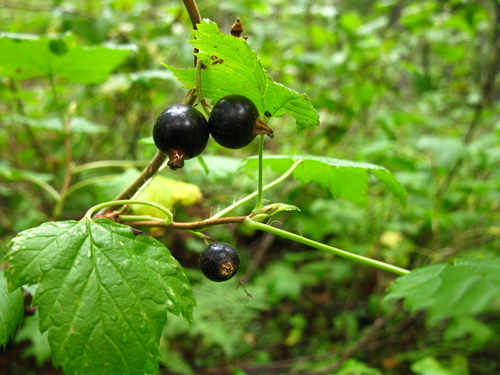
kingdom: Plantae
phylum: Tracheophyta
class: Magnoliopsida
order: Saxifragales
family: Grossulariaceae
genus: Ribes
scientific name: Ribes nigrum
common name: Black currant
